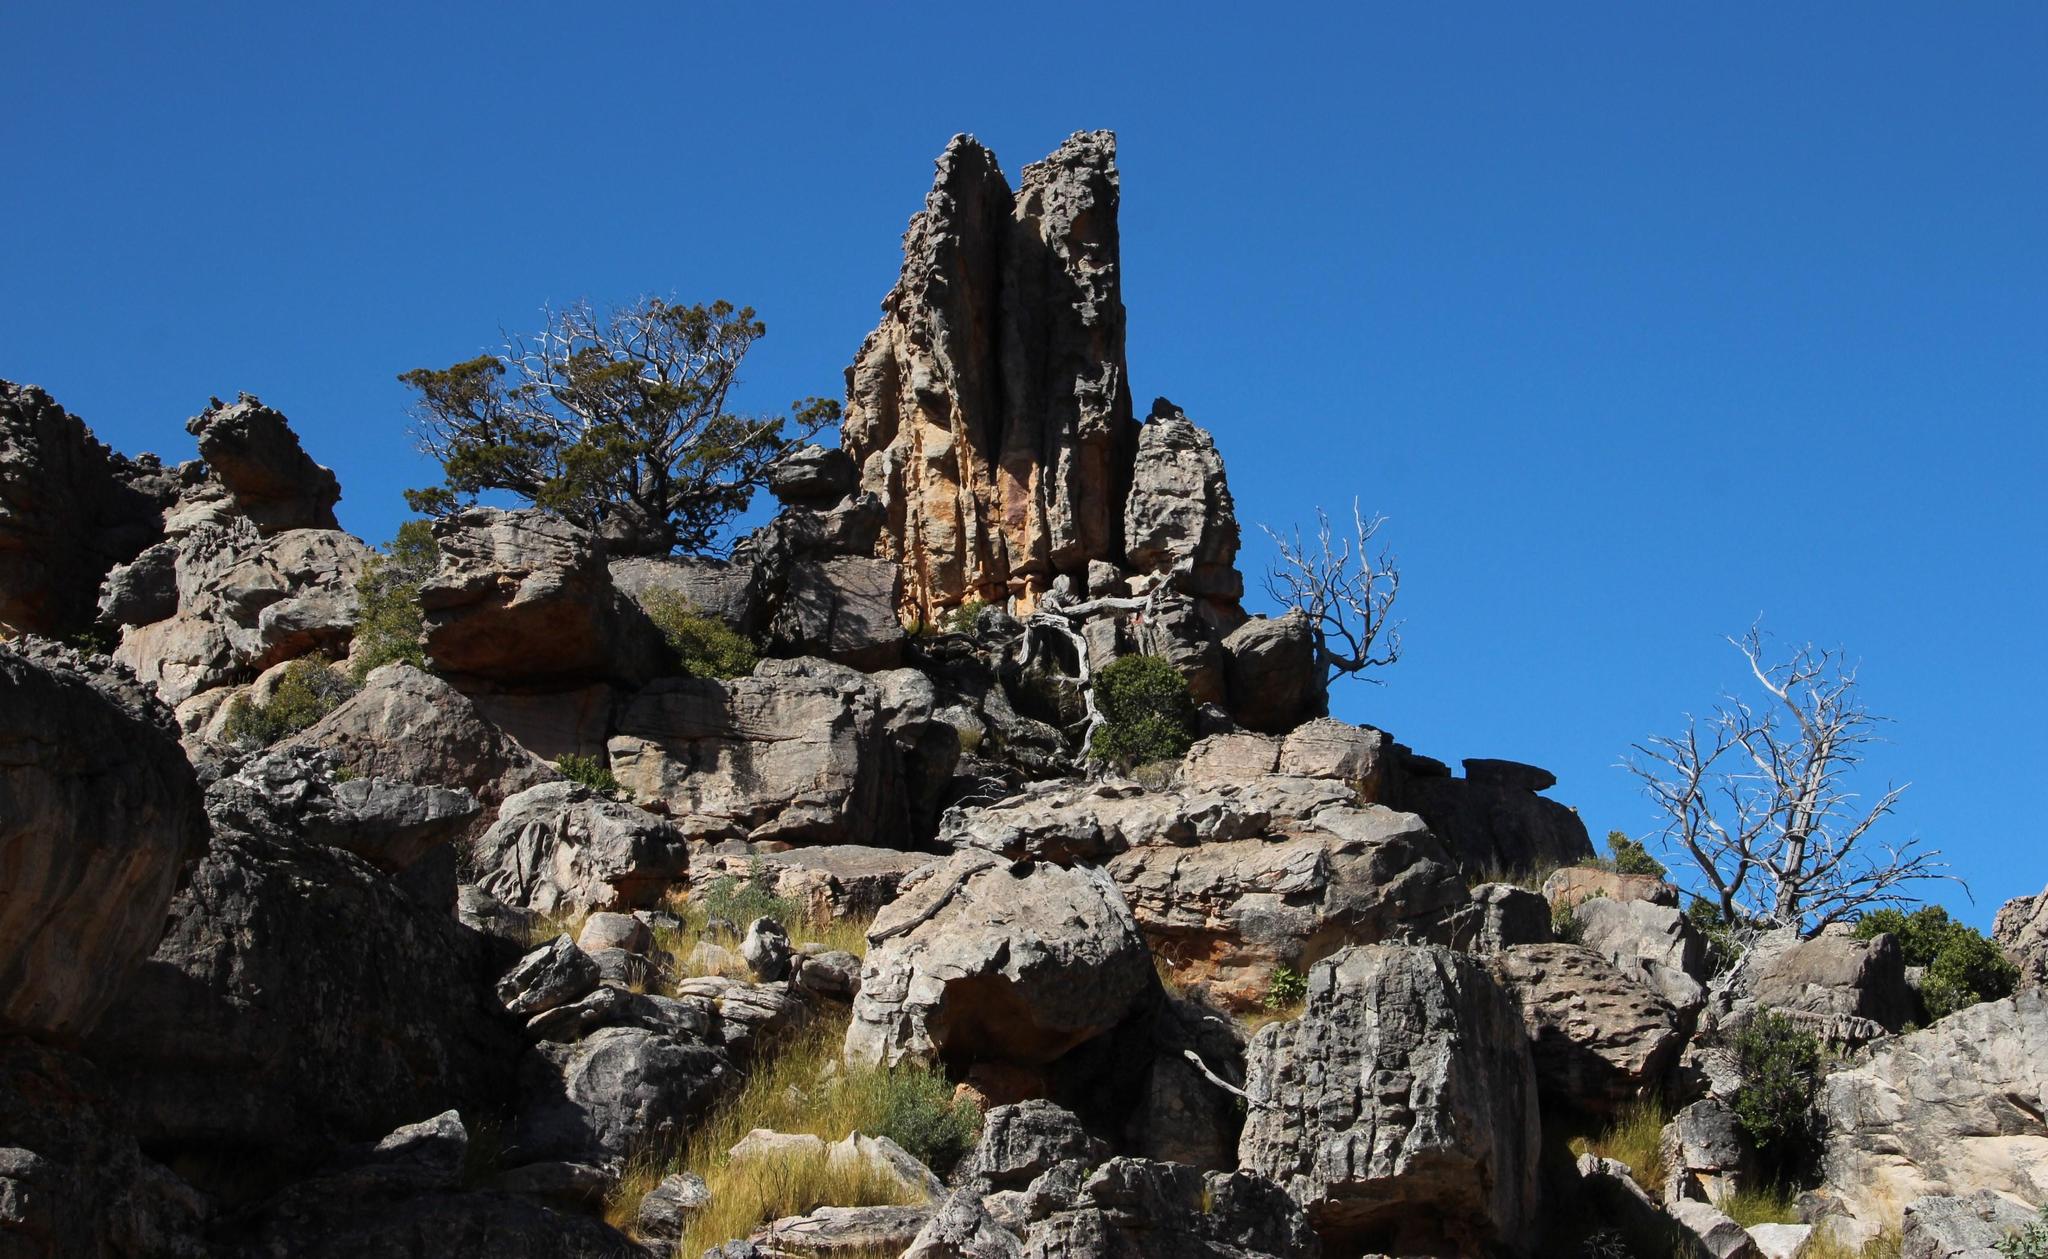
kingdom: Plantae
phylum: Tracheophyta
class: Pinopsida
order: Pinales
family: Cupressaceae
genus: Widdringtonia
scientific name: Widdringtonia nodiflora
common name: Cape cypress
